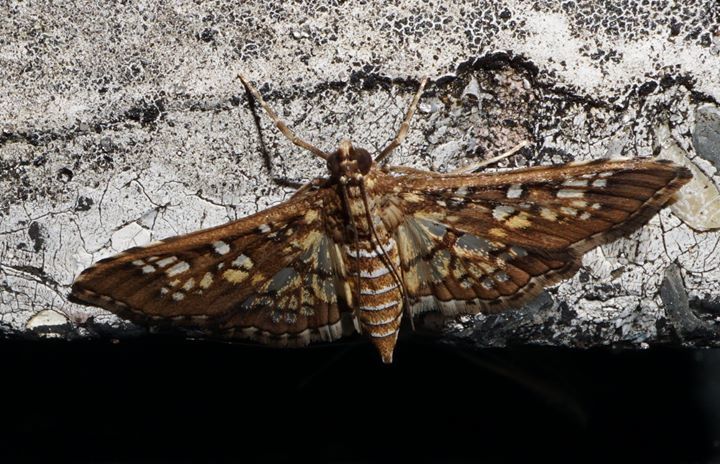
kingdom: Animalia
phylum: Arthropoda
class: Insecta
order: Lepidoptera
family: Crambidae
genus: Samea
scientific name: Samea ecclesialis
